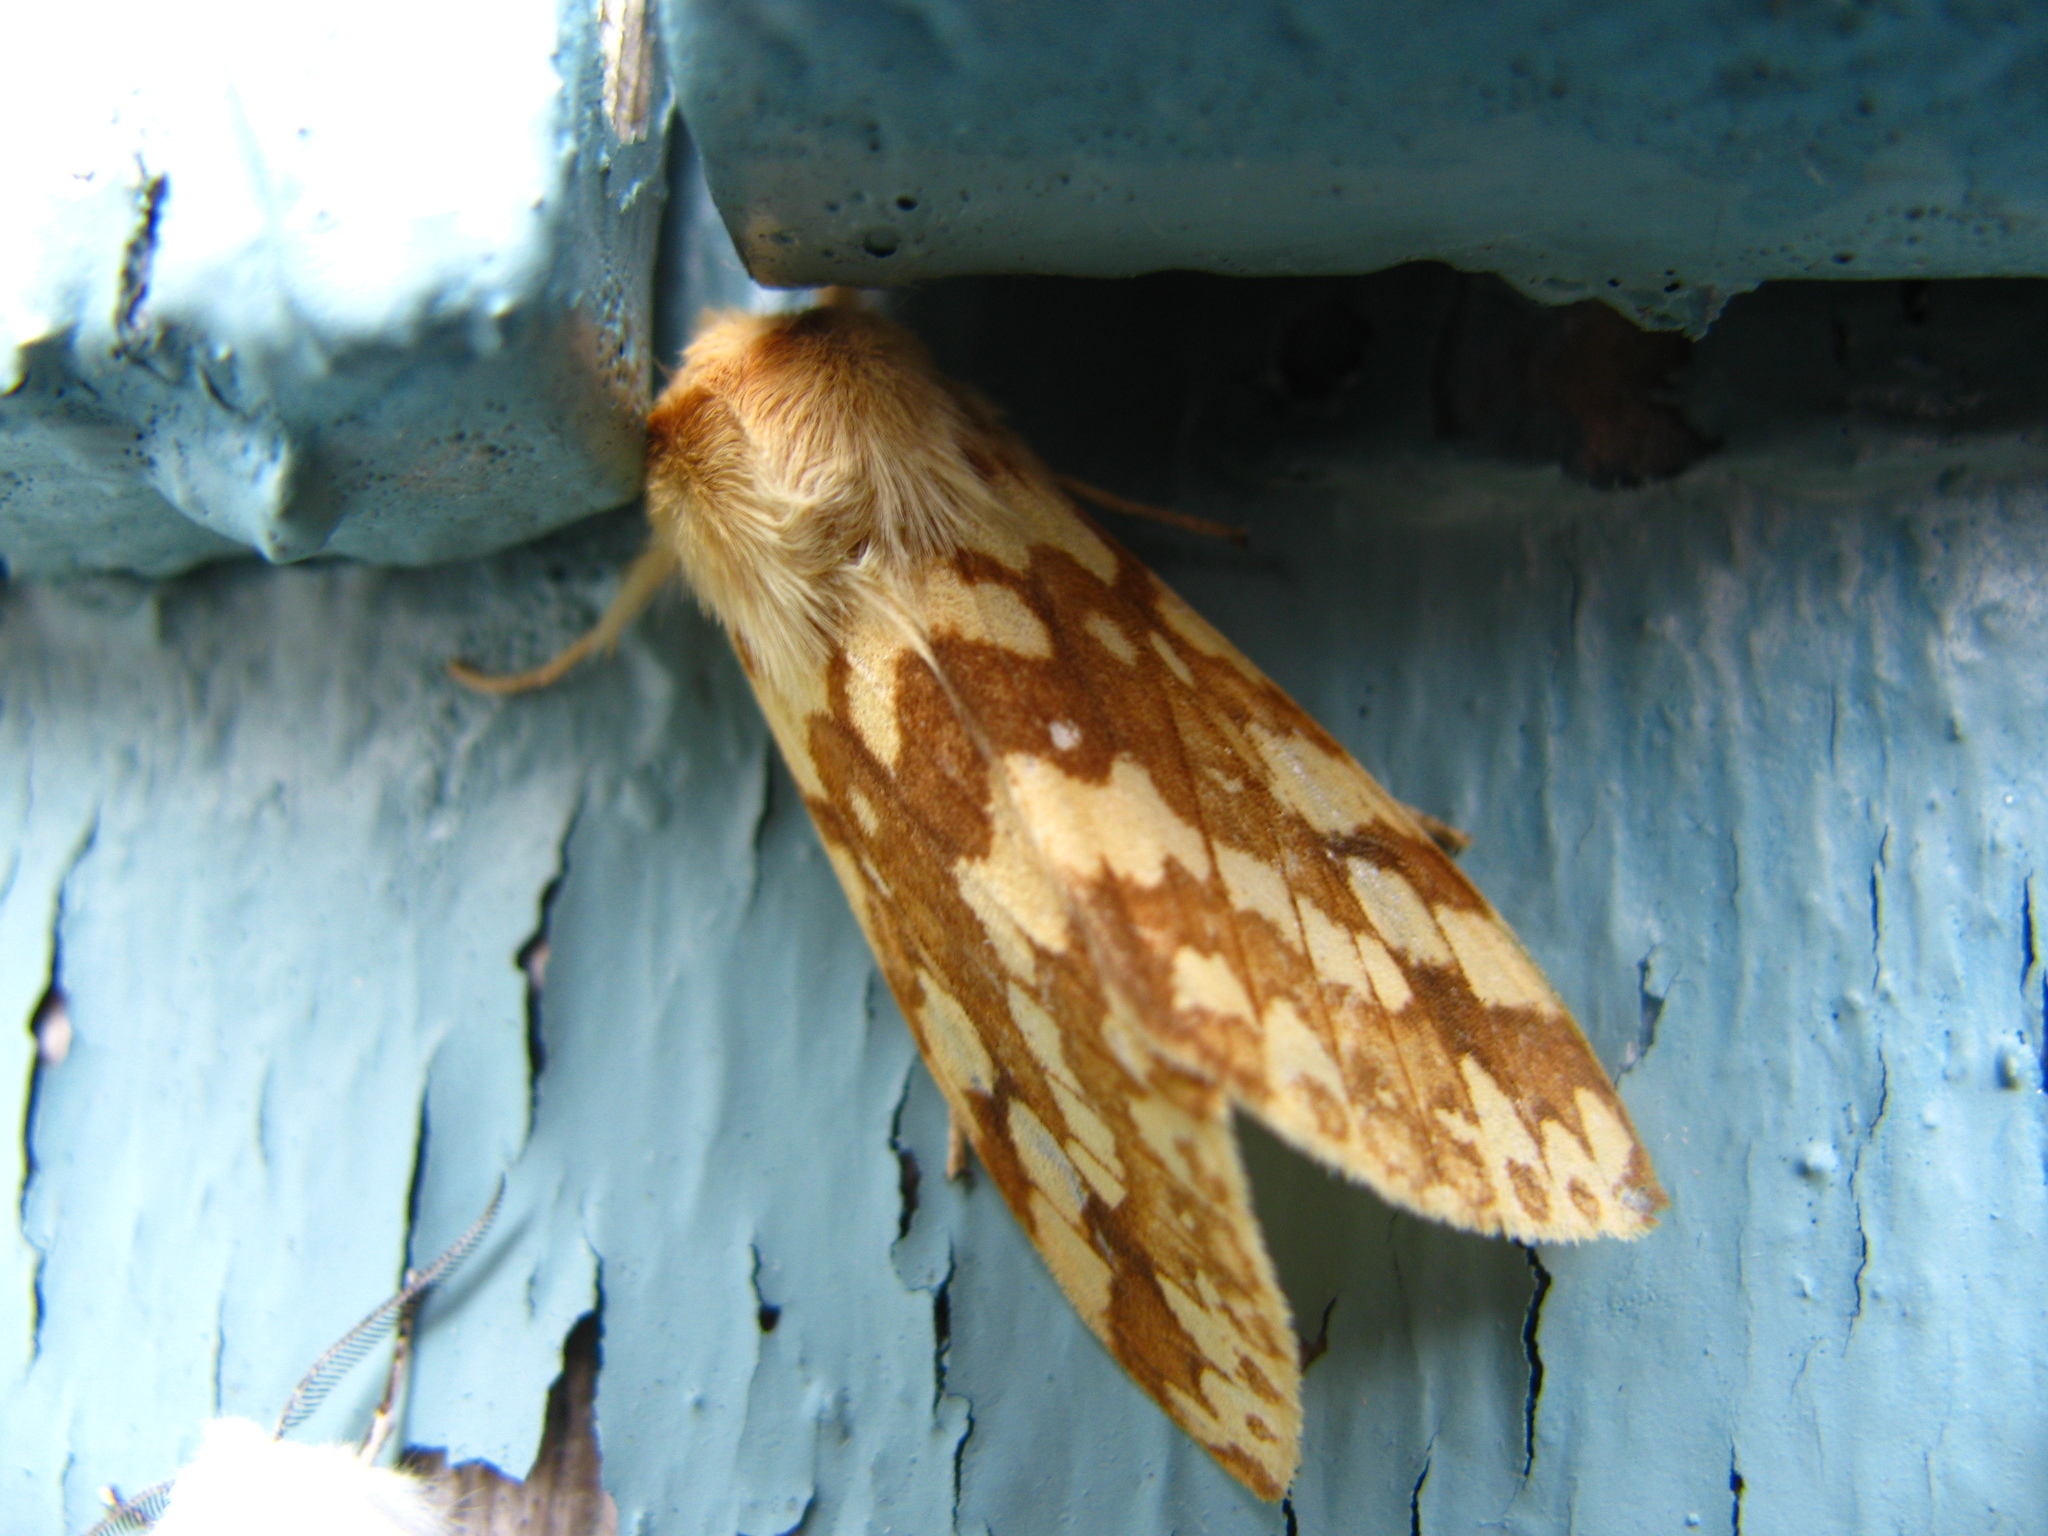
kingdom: Animalia
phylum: Arthropoda
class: Insecta
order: Lepidoptera
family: Erebidae
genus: Lophocampa
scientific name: Lophocampa maculata
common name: Spotted tussock moth
